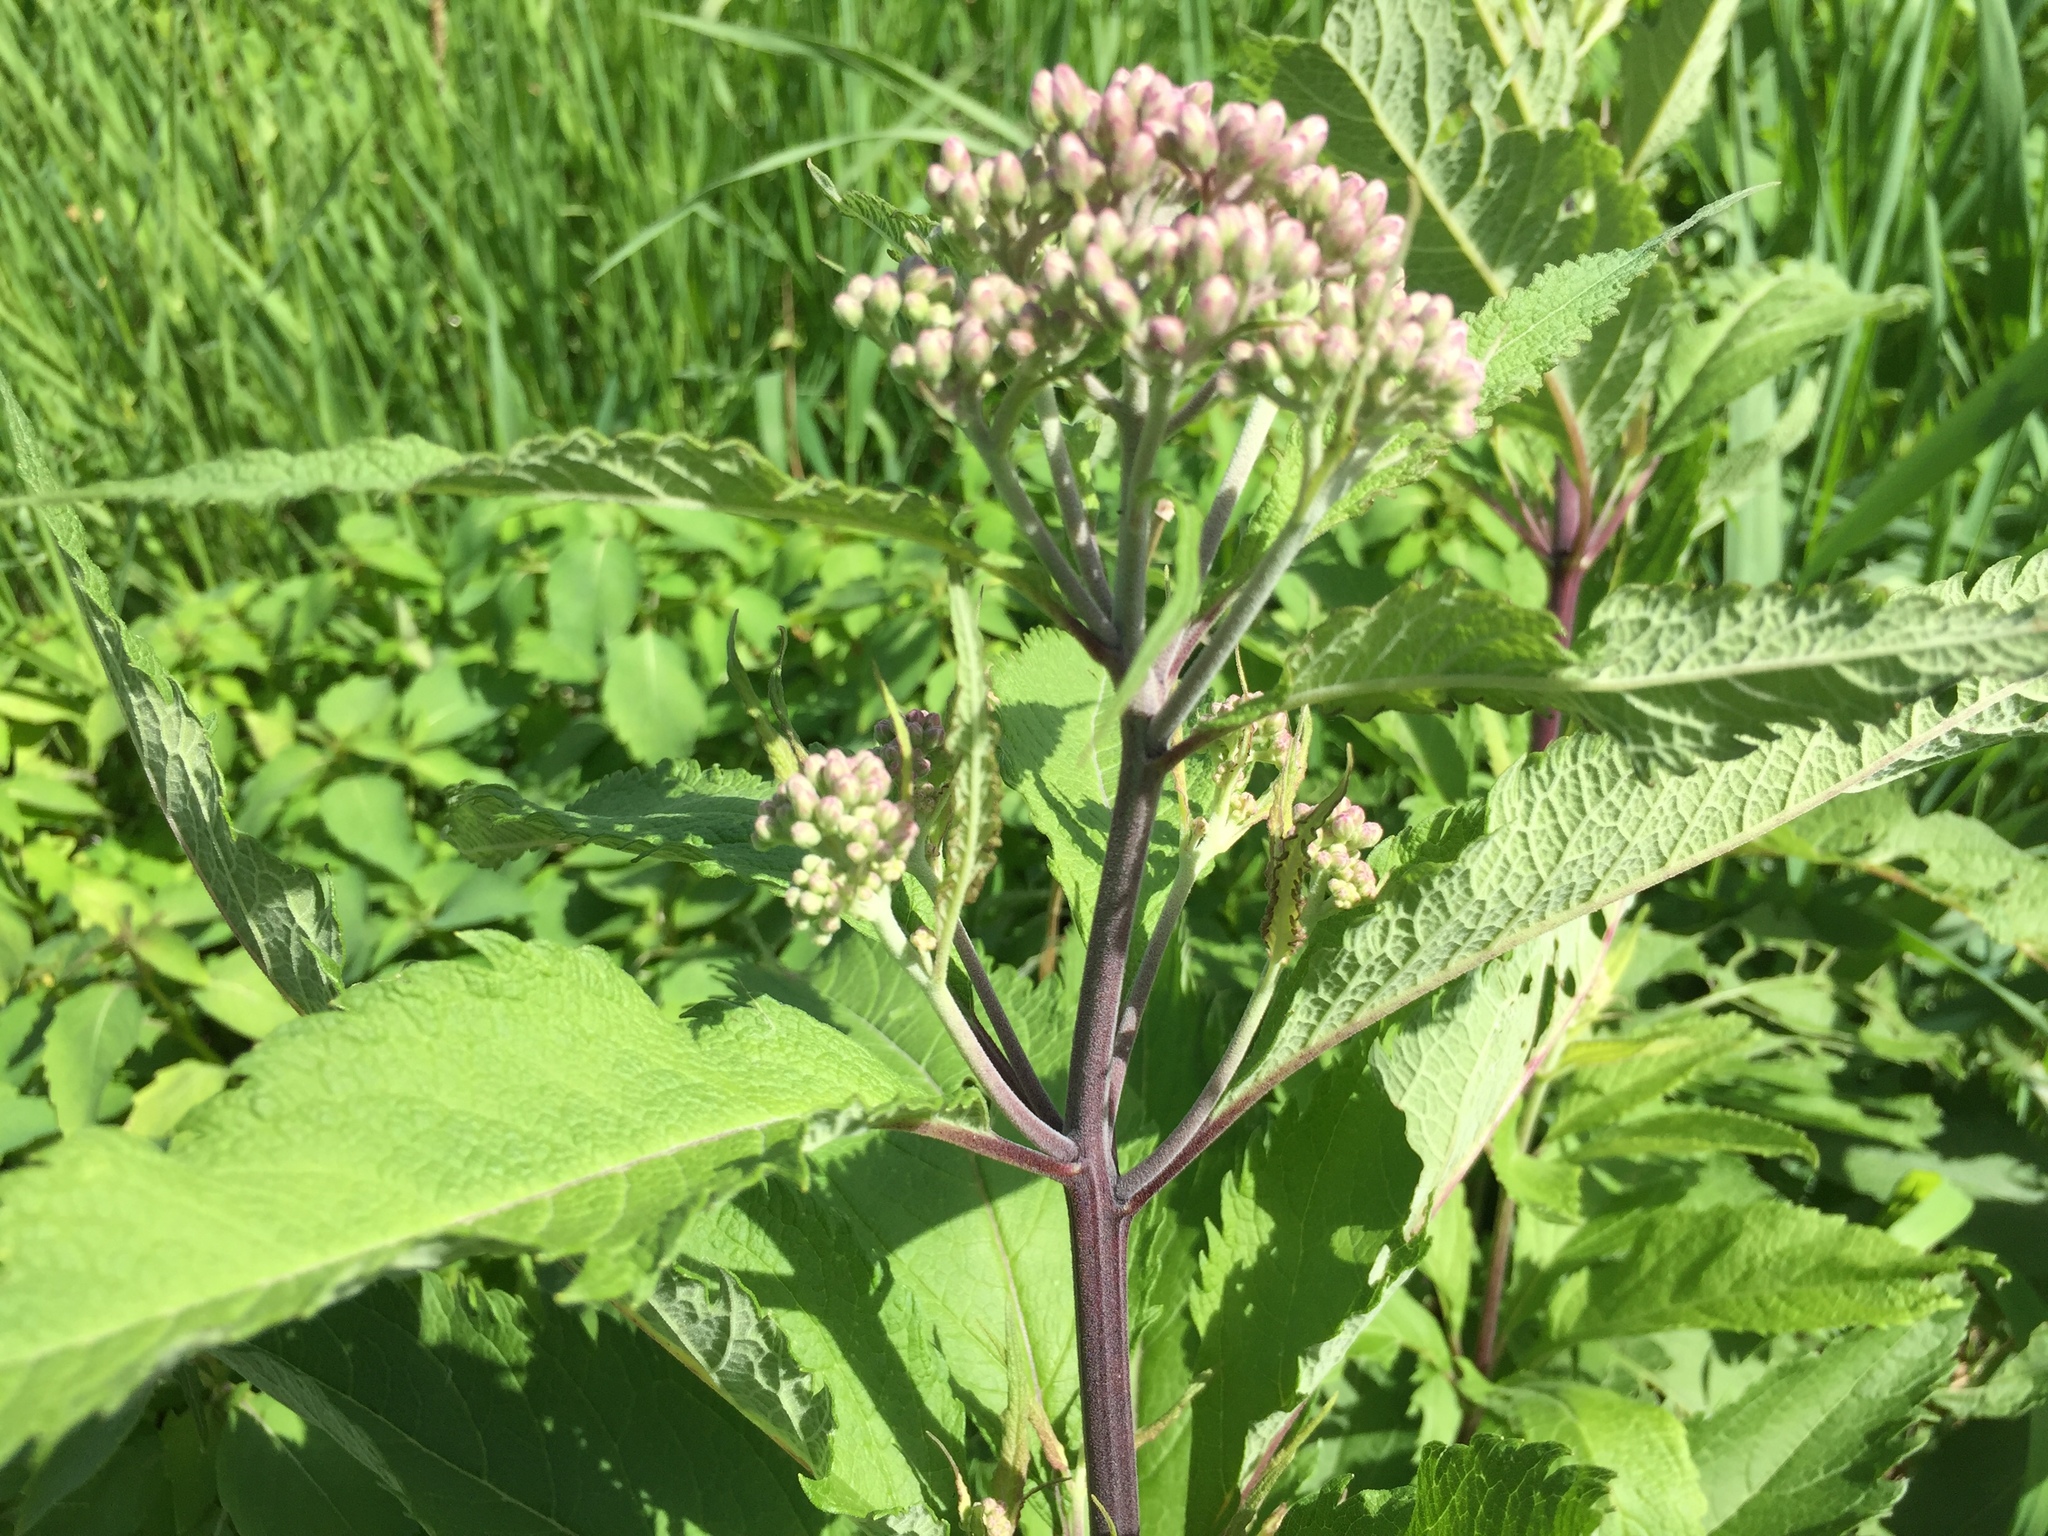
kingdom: Plantae
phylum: Tracheophyta
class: Magnoliopsida
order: Asterales
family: Asteraceae
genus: Eutrochium
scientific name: Eutrochium maculatum
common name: Spotted joe pye weed
